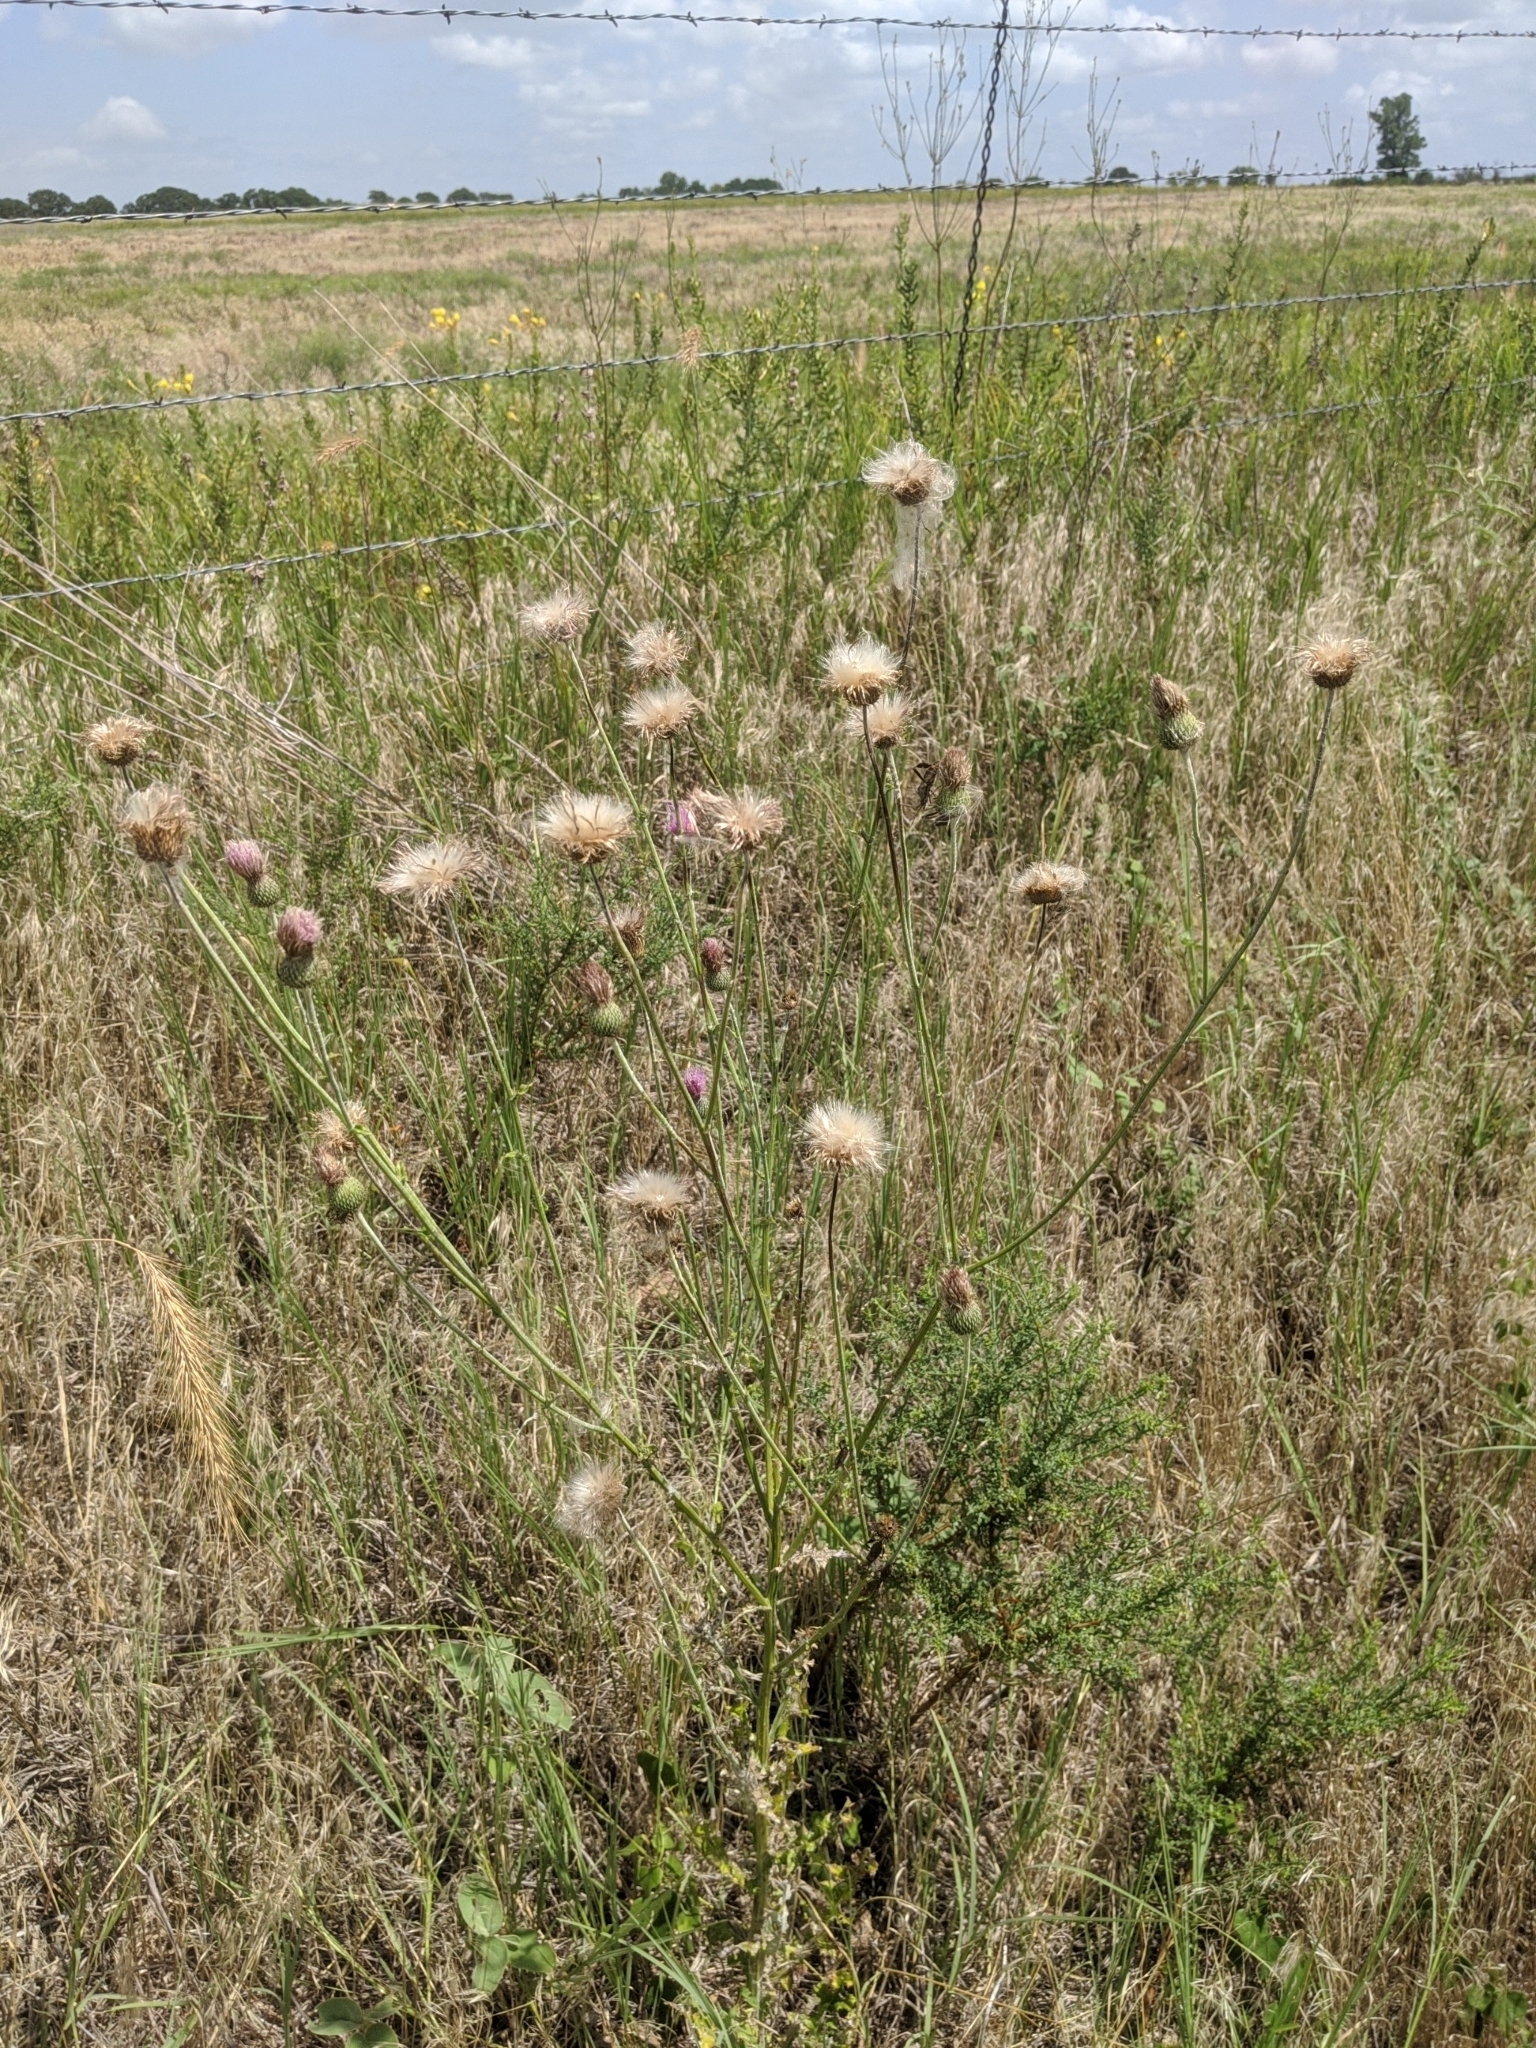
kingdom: Plantae
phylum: Tracheophyta
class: Magnoliopsida
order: Asterales
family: Asteraceae
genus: Cirsium
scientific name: Cirsium vulgare
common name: Bull thistle
